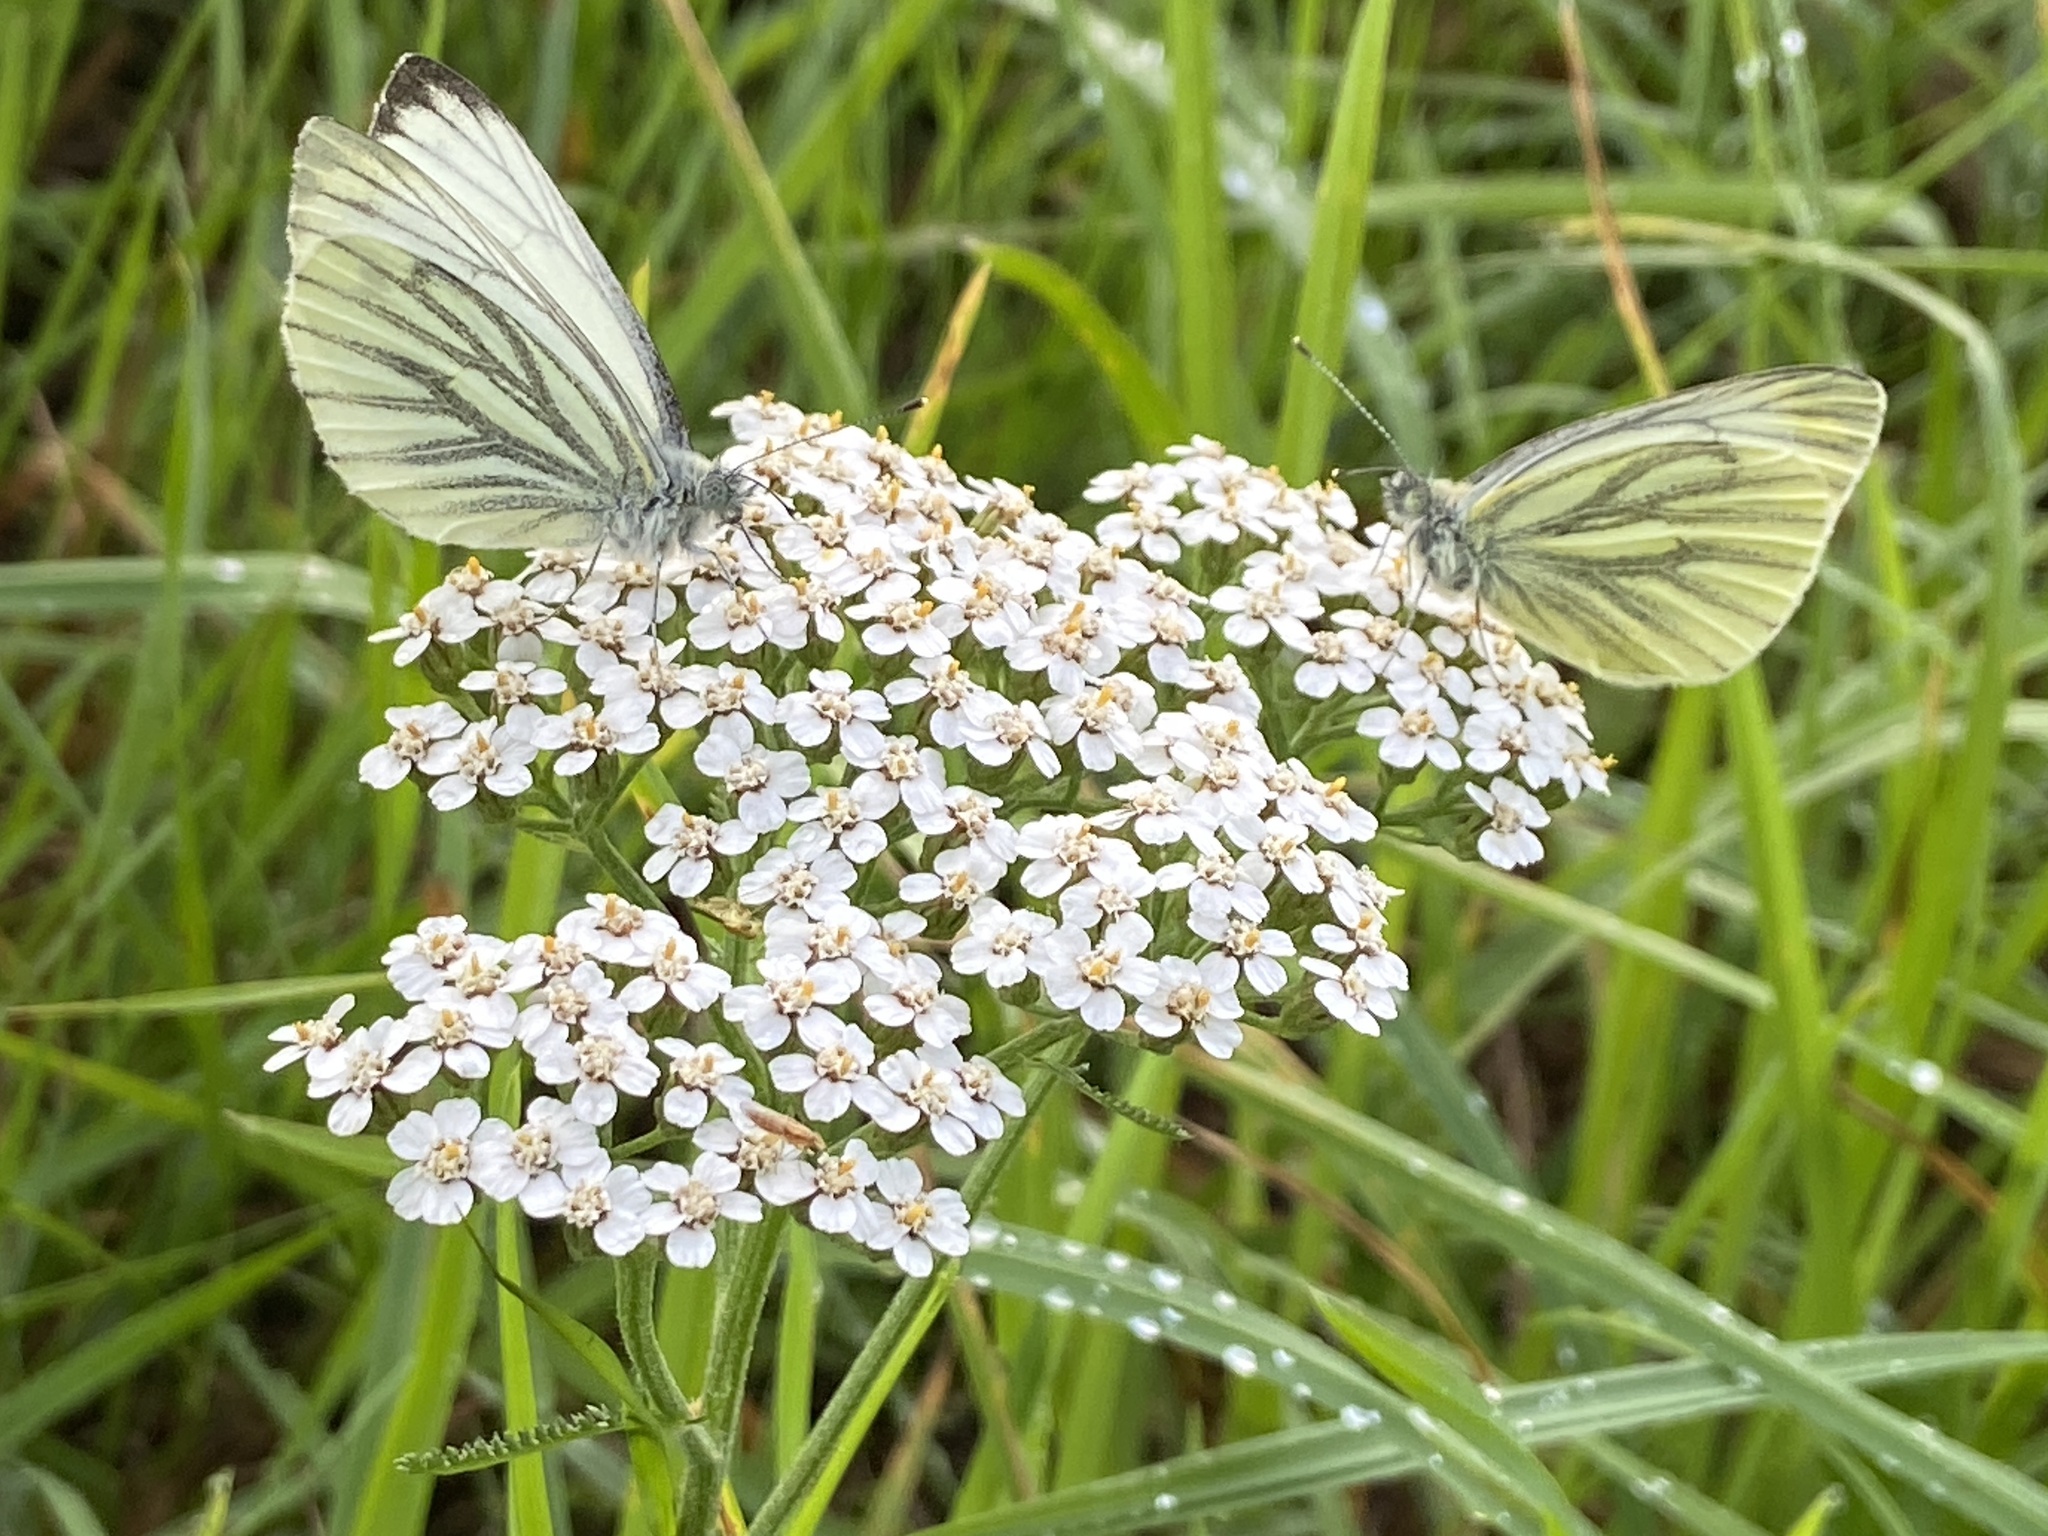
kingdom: Animalia
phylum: Arthropoda
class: Insecta
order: Lepidoptera
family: Pieridae
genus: Pieris
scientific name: Pieris napi
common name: Green-veined white
